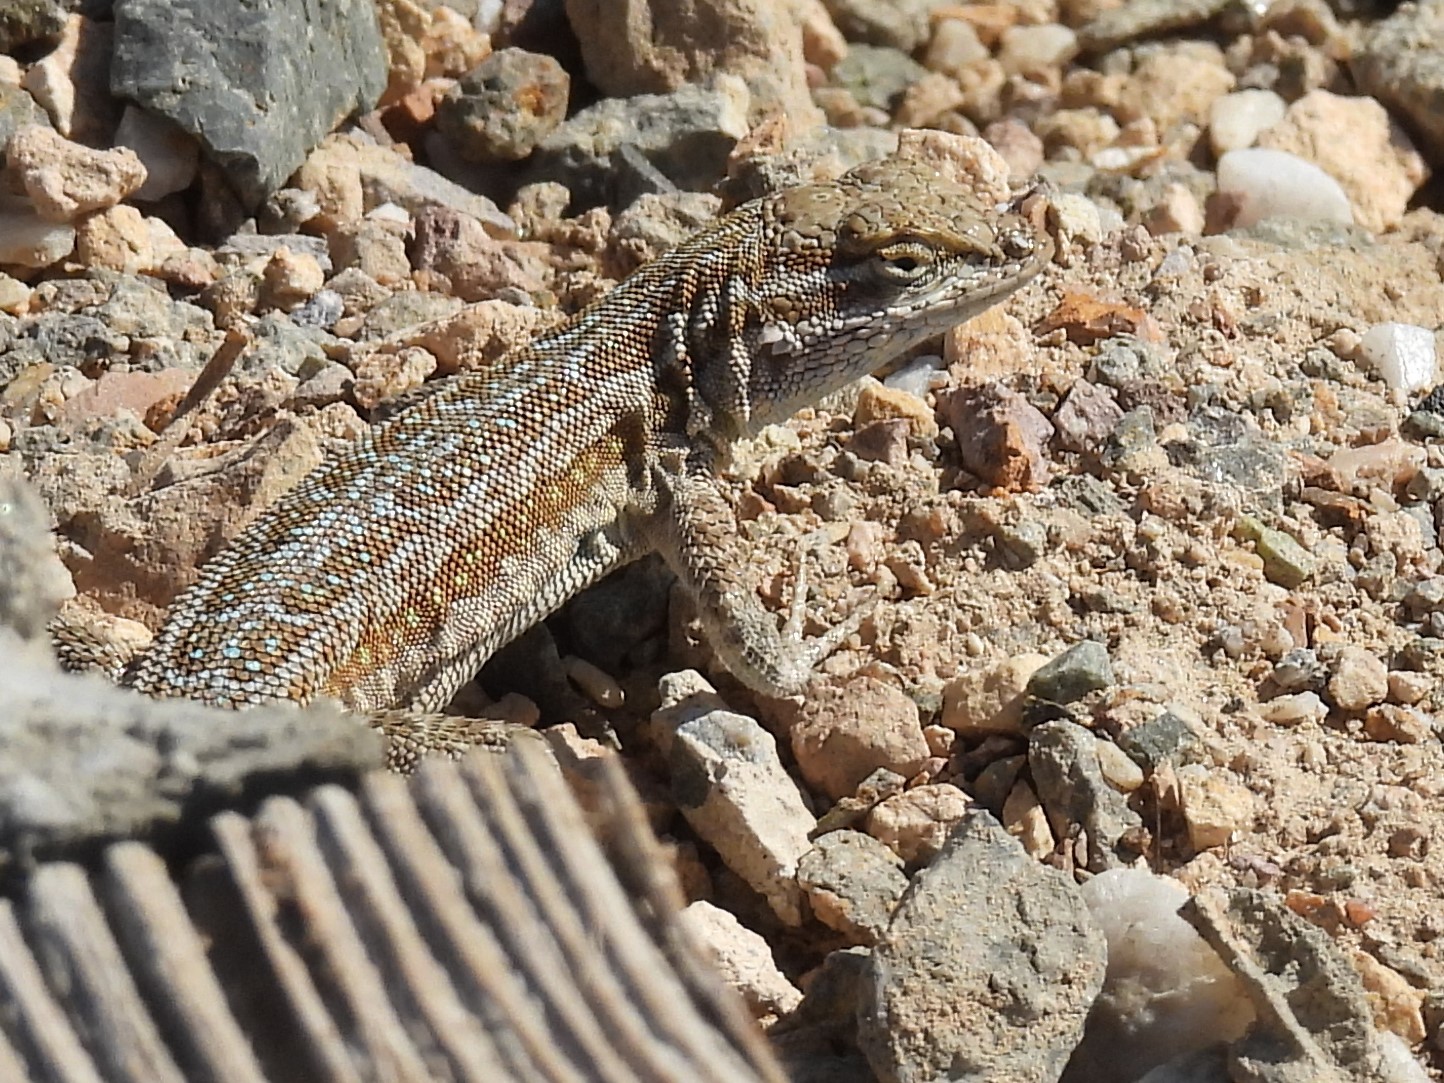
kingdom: Animalia
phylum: Chordata
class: Squamata
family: Phrynosomatidae
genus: Uta
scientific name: Uta stansburiana
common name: Side-blotched lizard
